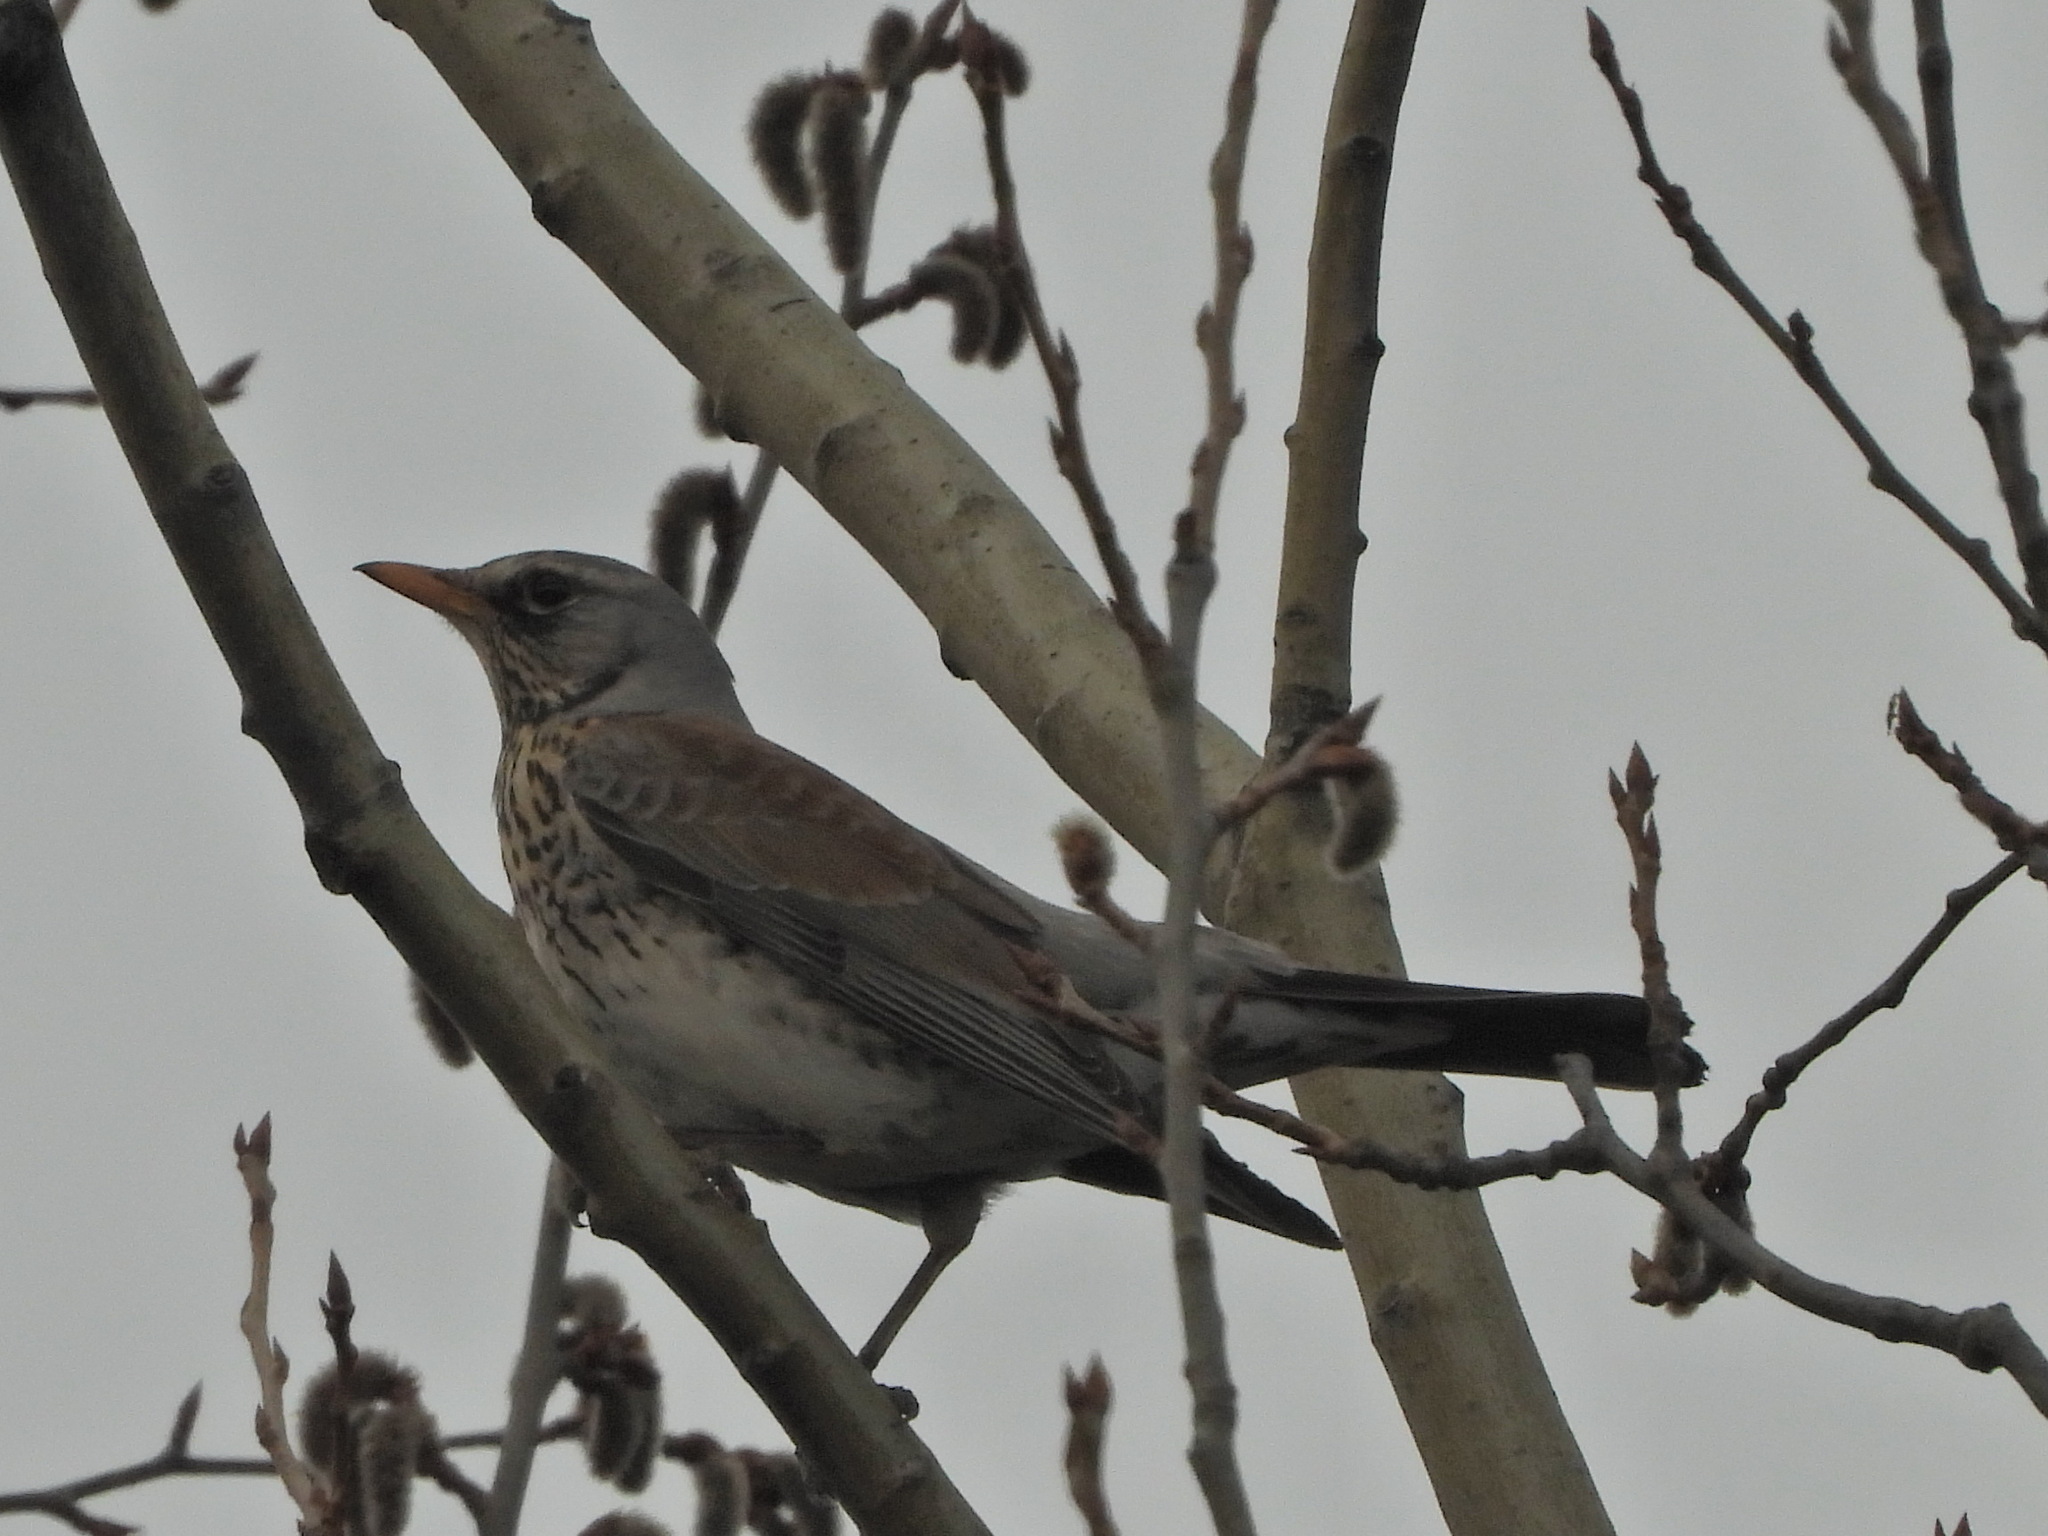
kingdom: Animalia
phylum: Chordata
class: Aves
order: Passeriformes
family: Turdidae
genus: Turdus
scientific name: Turdus pilaris
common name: Fieldfare
